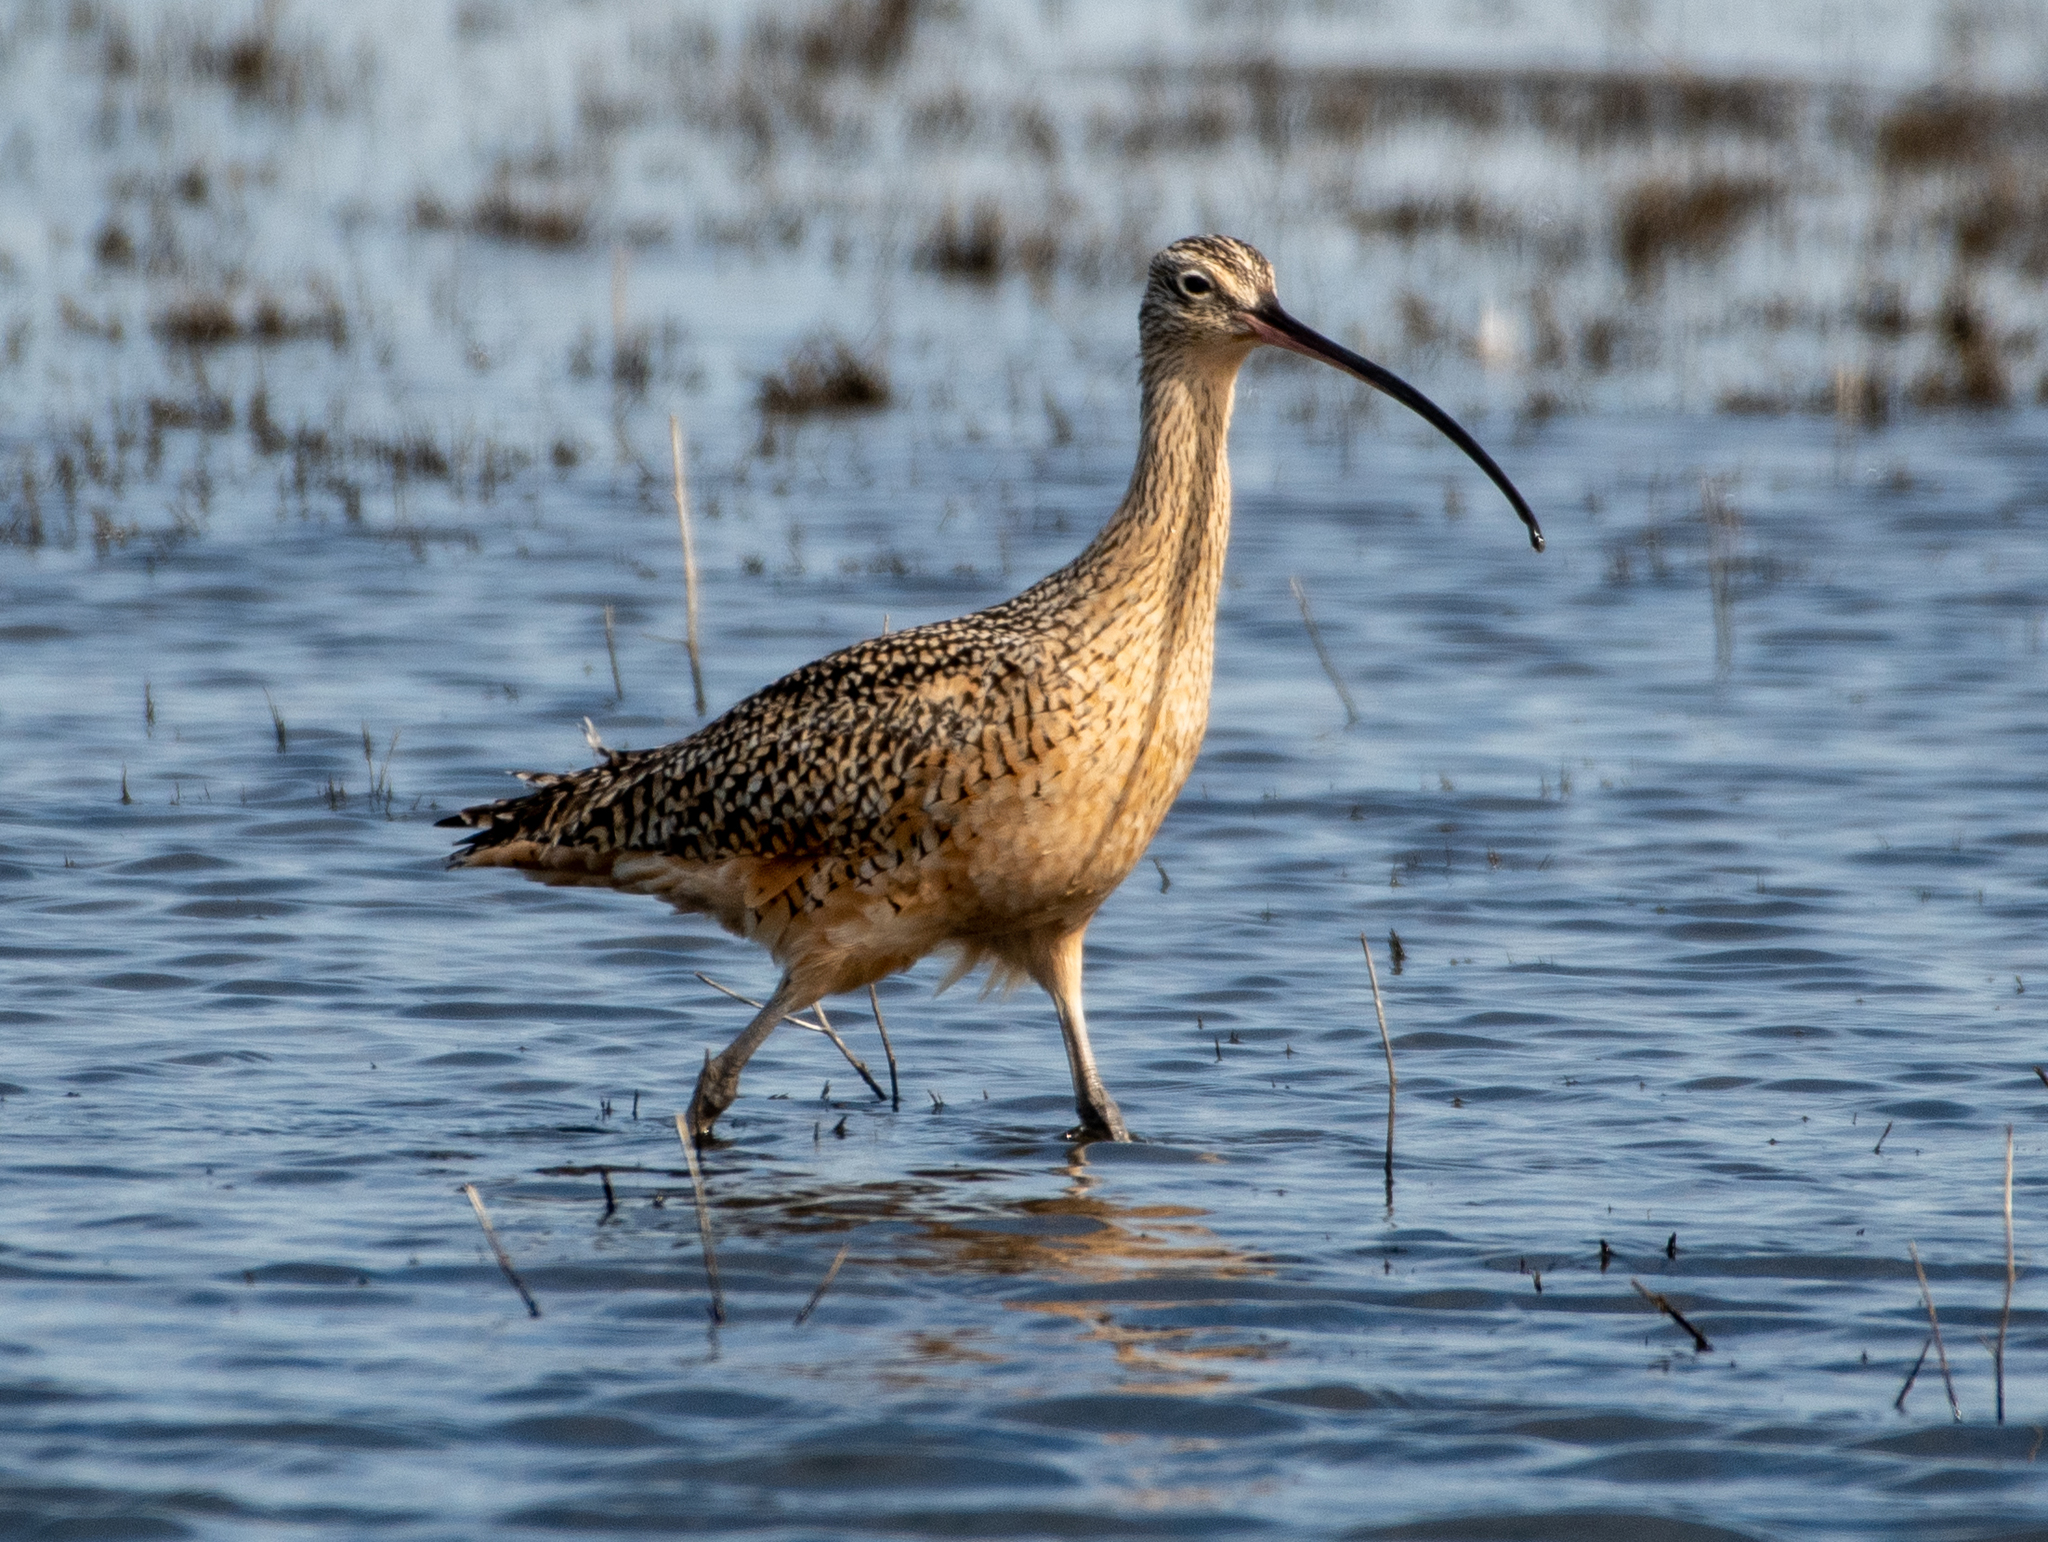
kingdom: Animalia
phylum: Chordata
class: Aves
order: Charadriiformes
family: Scolopacidae
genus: Numenius
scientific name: Numenius americanus
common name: Long-billed curlew
